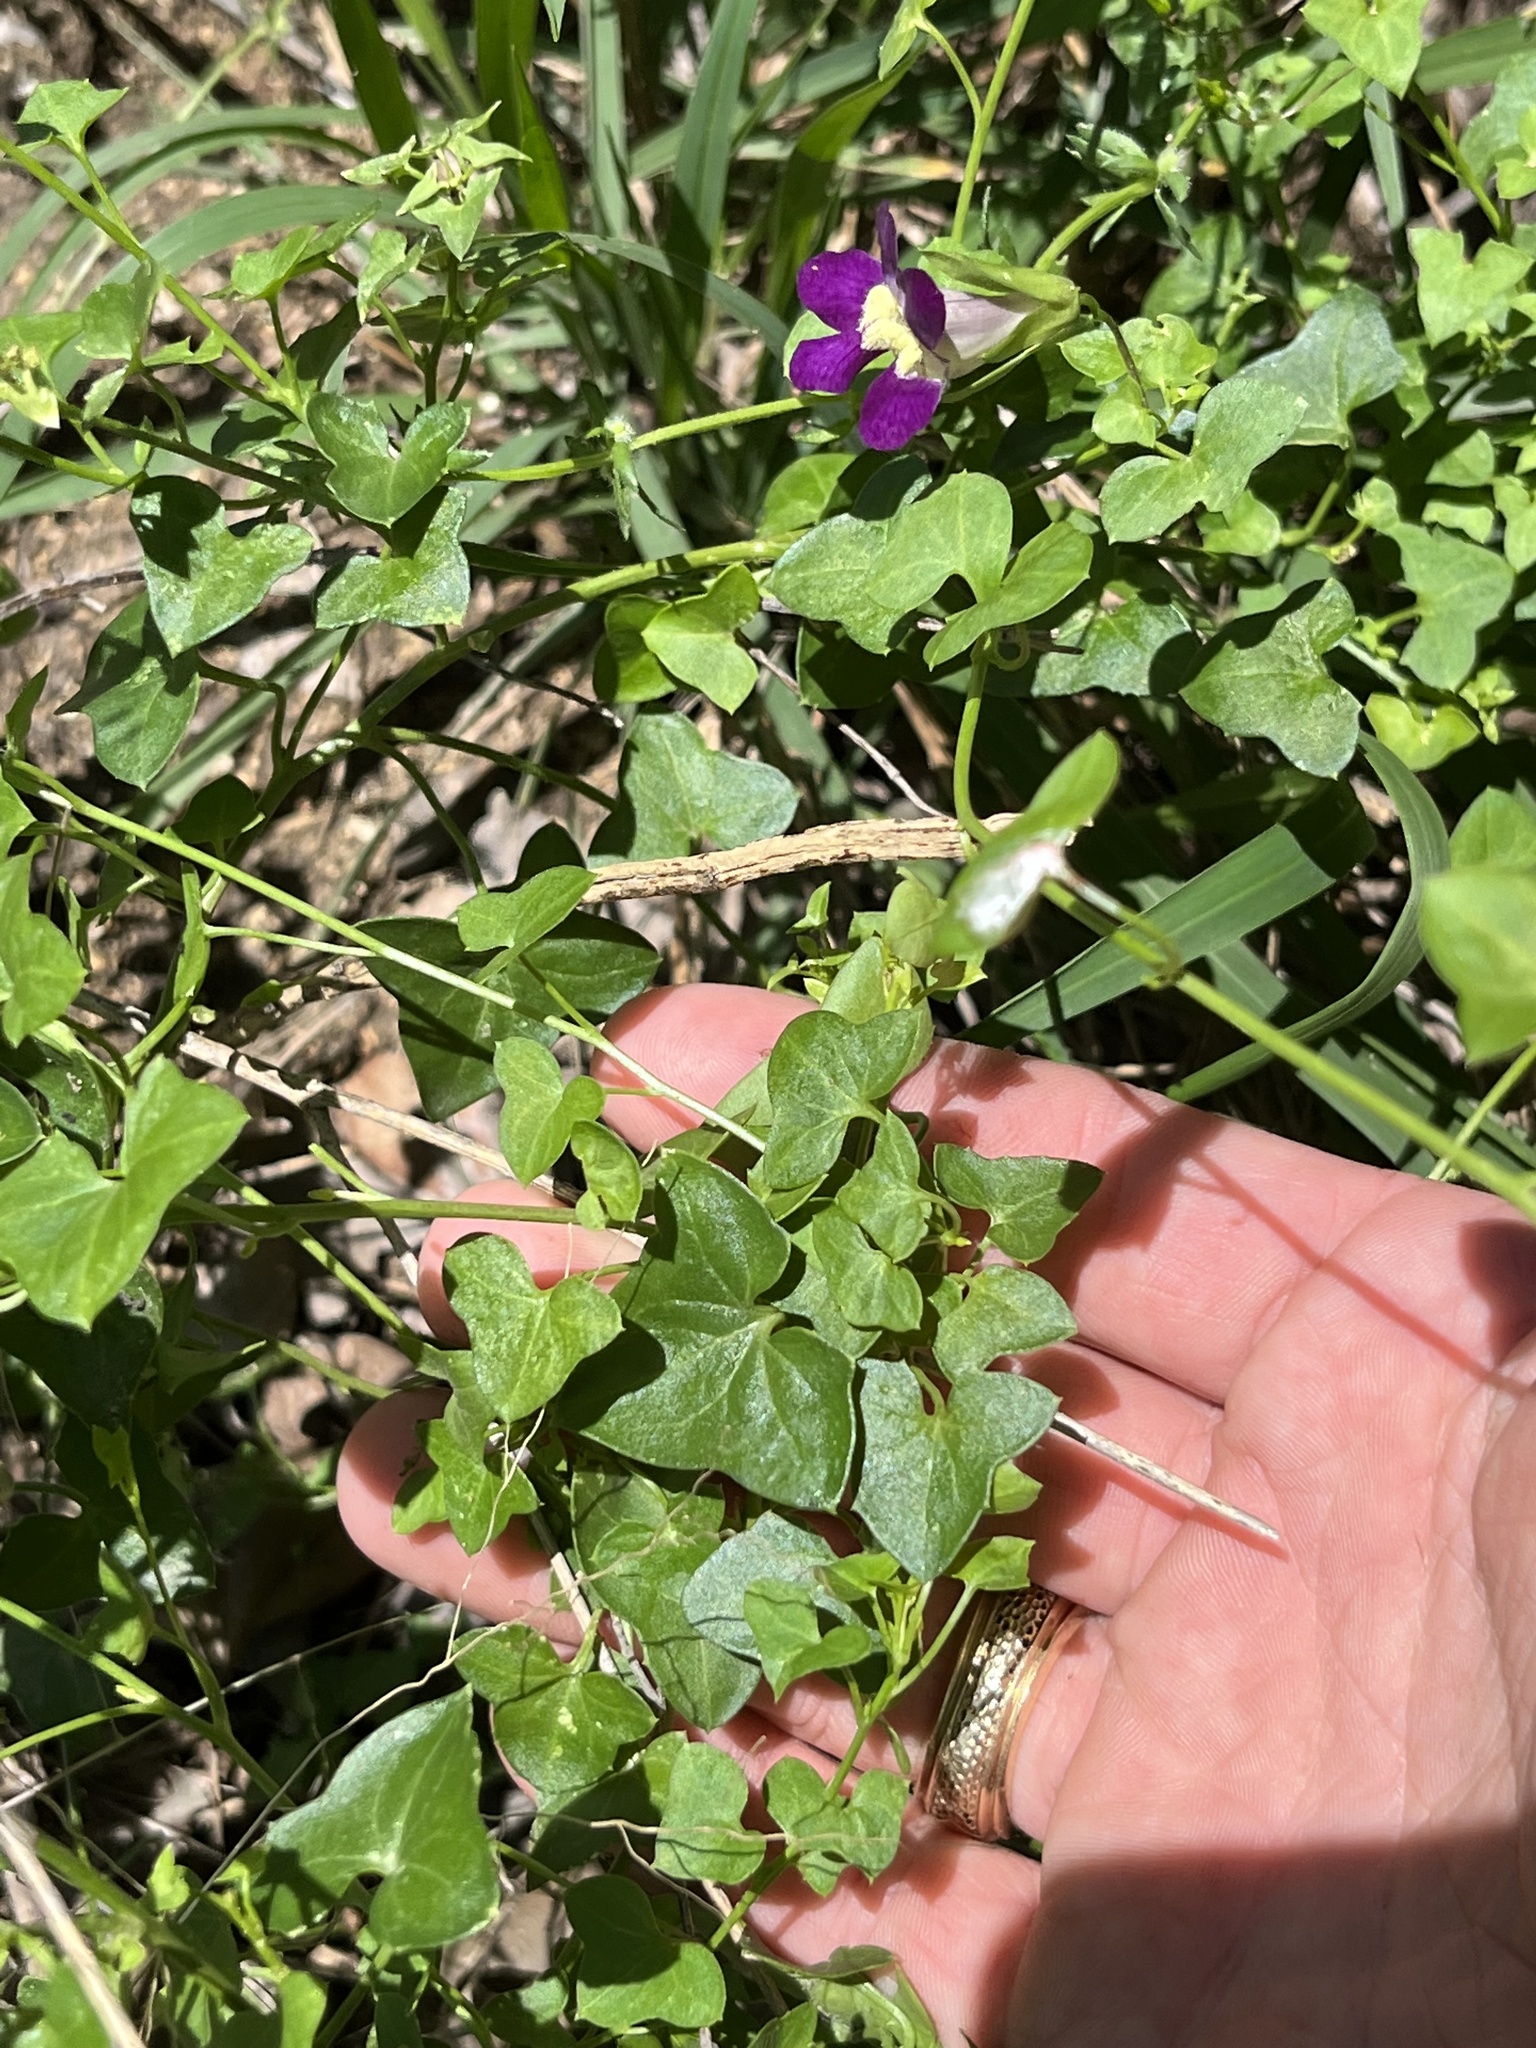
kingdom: Plantae
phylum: Tracheophyta
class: Magnoliopsida
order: Lamiales
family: Plantaginaceae
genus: Maurandella
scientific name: Maurandella antirrhiniflora
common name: Violet twining-snapdragon
